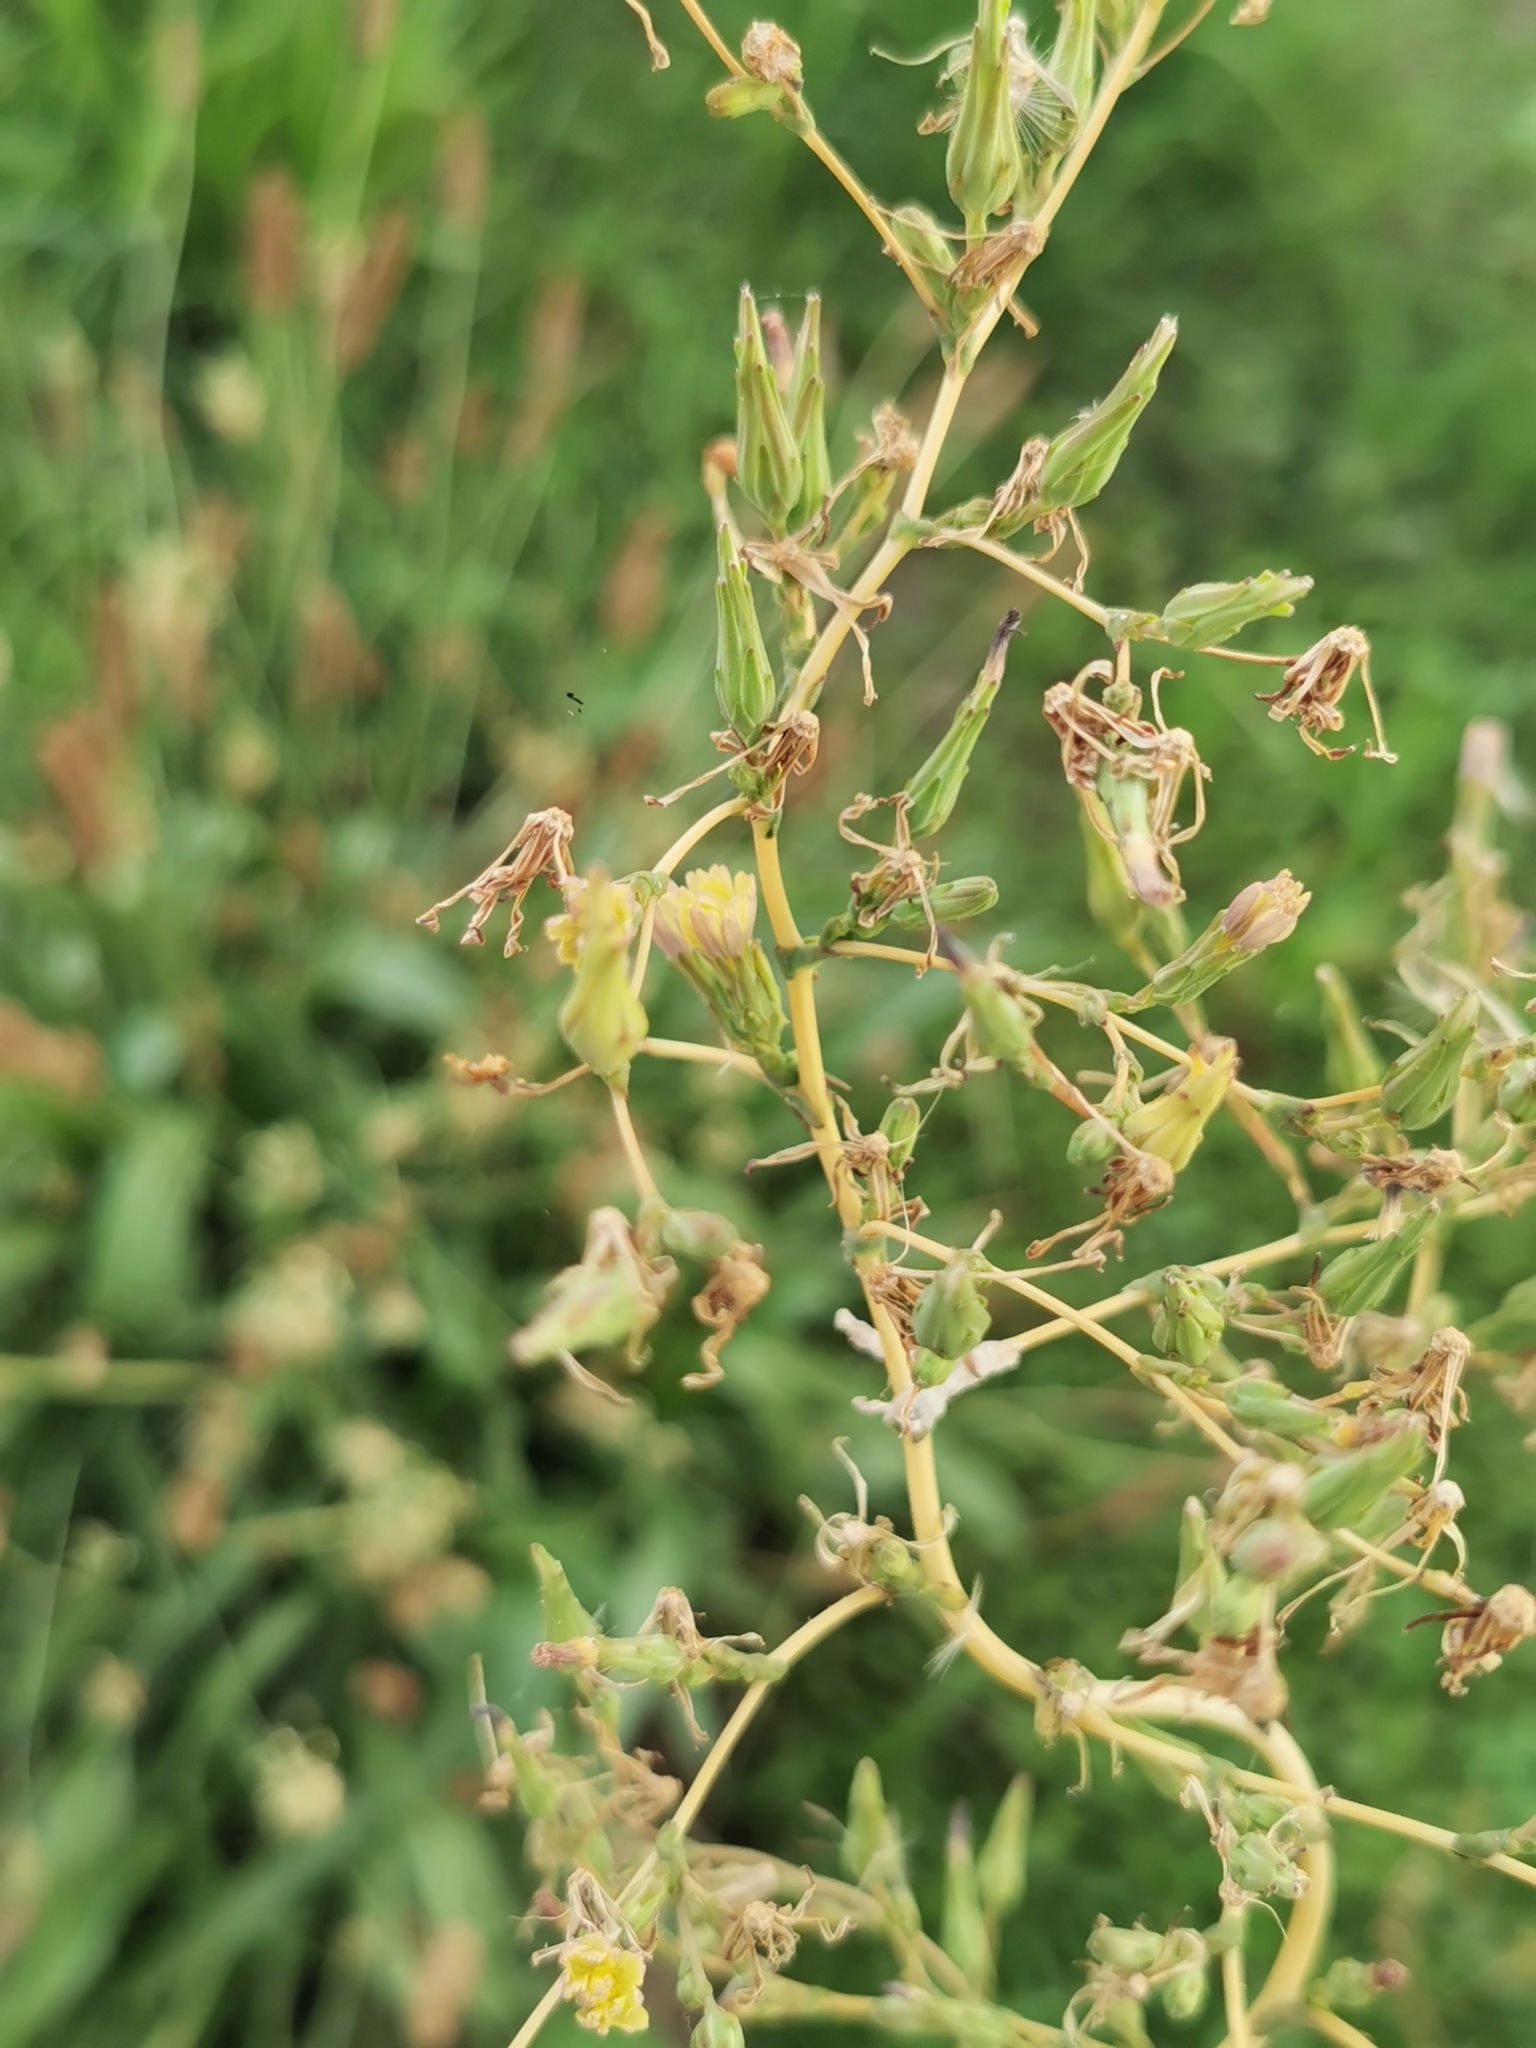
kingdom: Plantae
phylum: Tracheophyta
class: Magnoliopsida
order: Asterales
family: Asteraceae
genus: Lactuca
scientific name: Lactuca serriola
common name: Prickly lettuce
